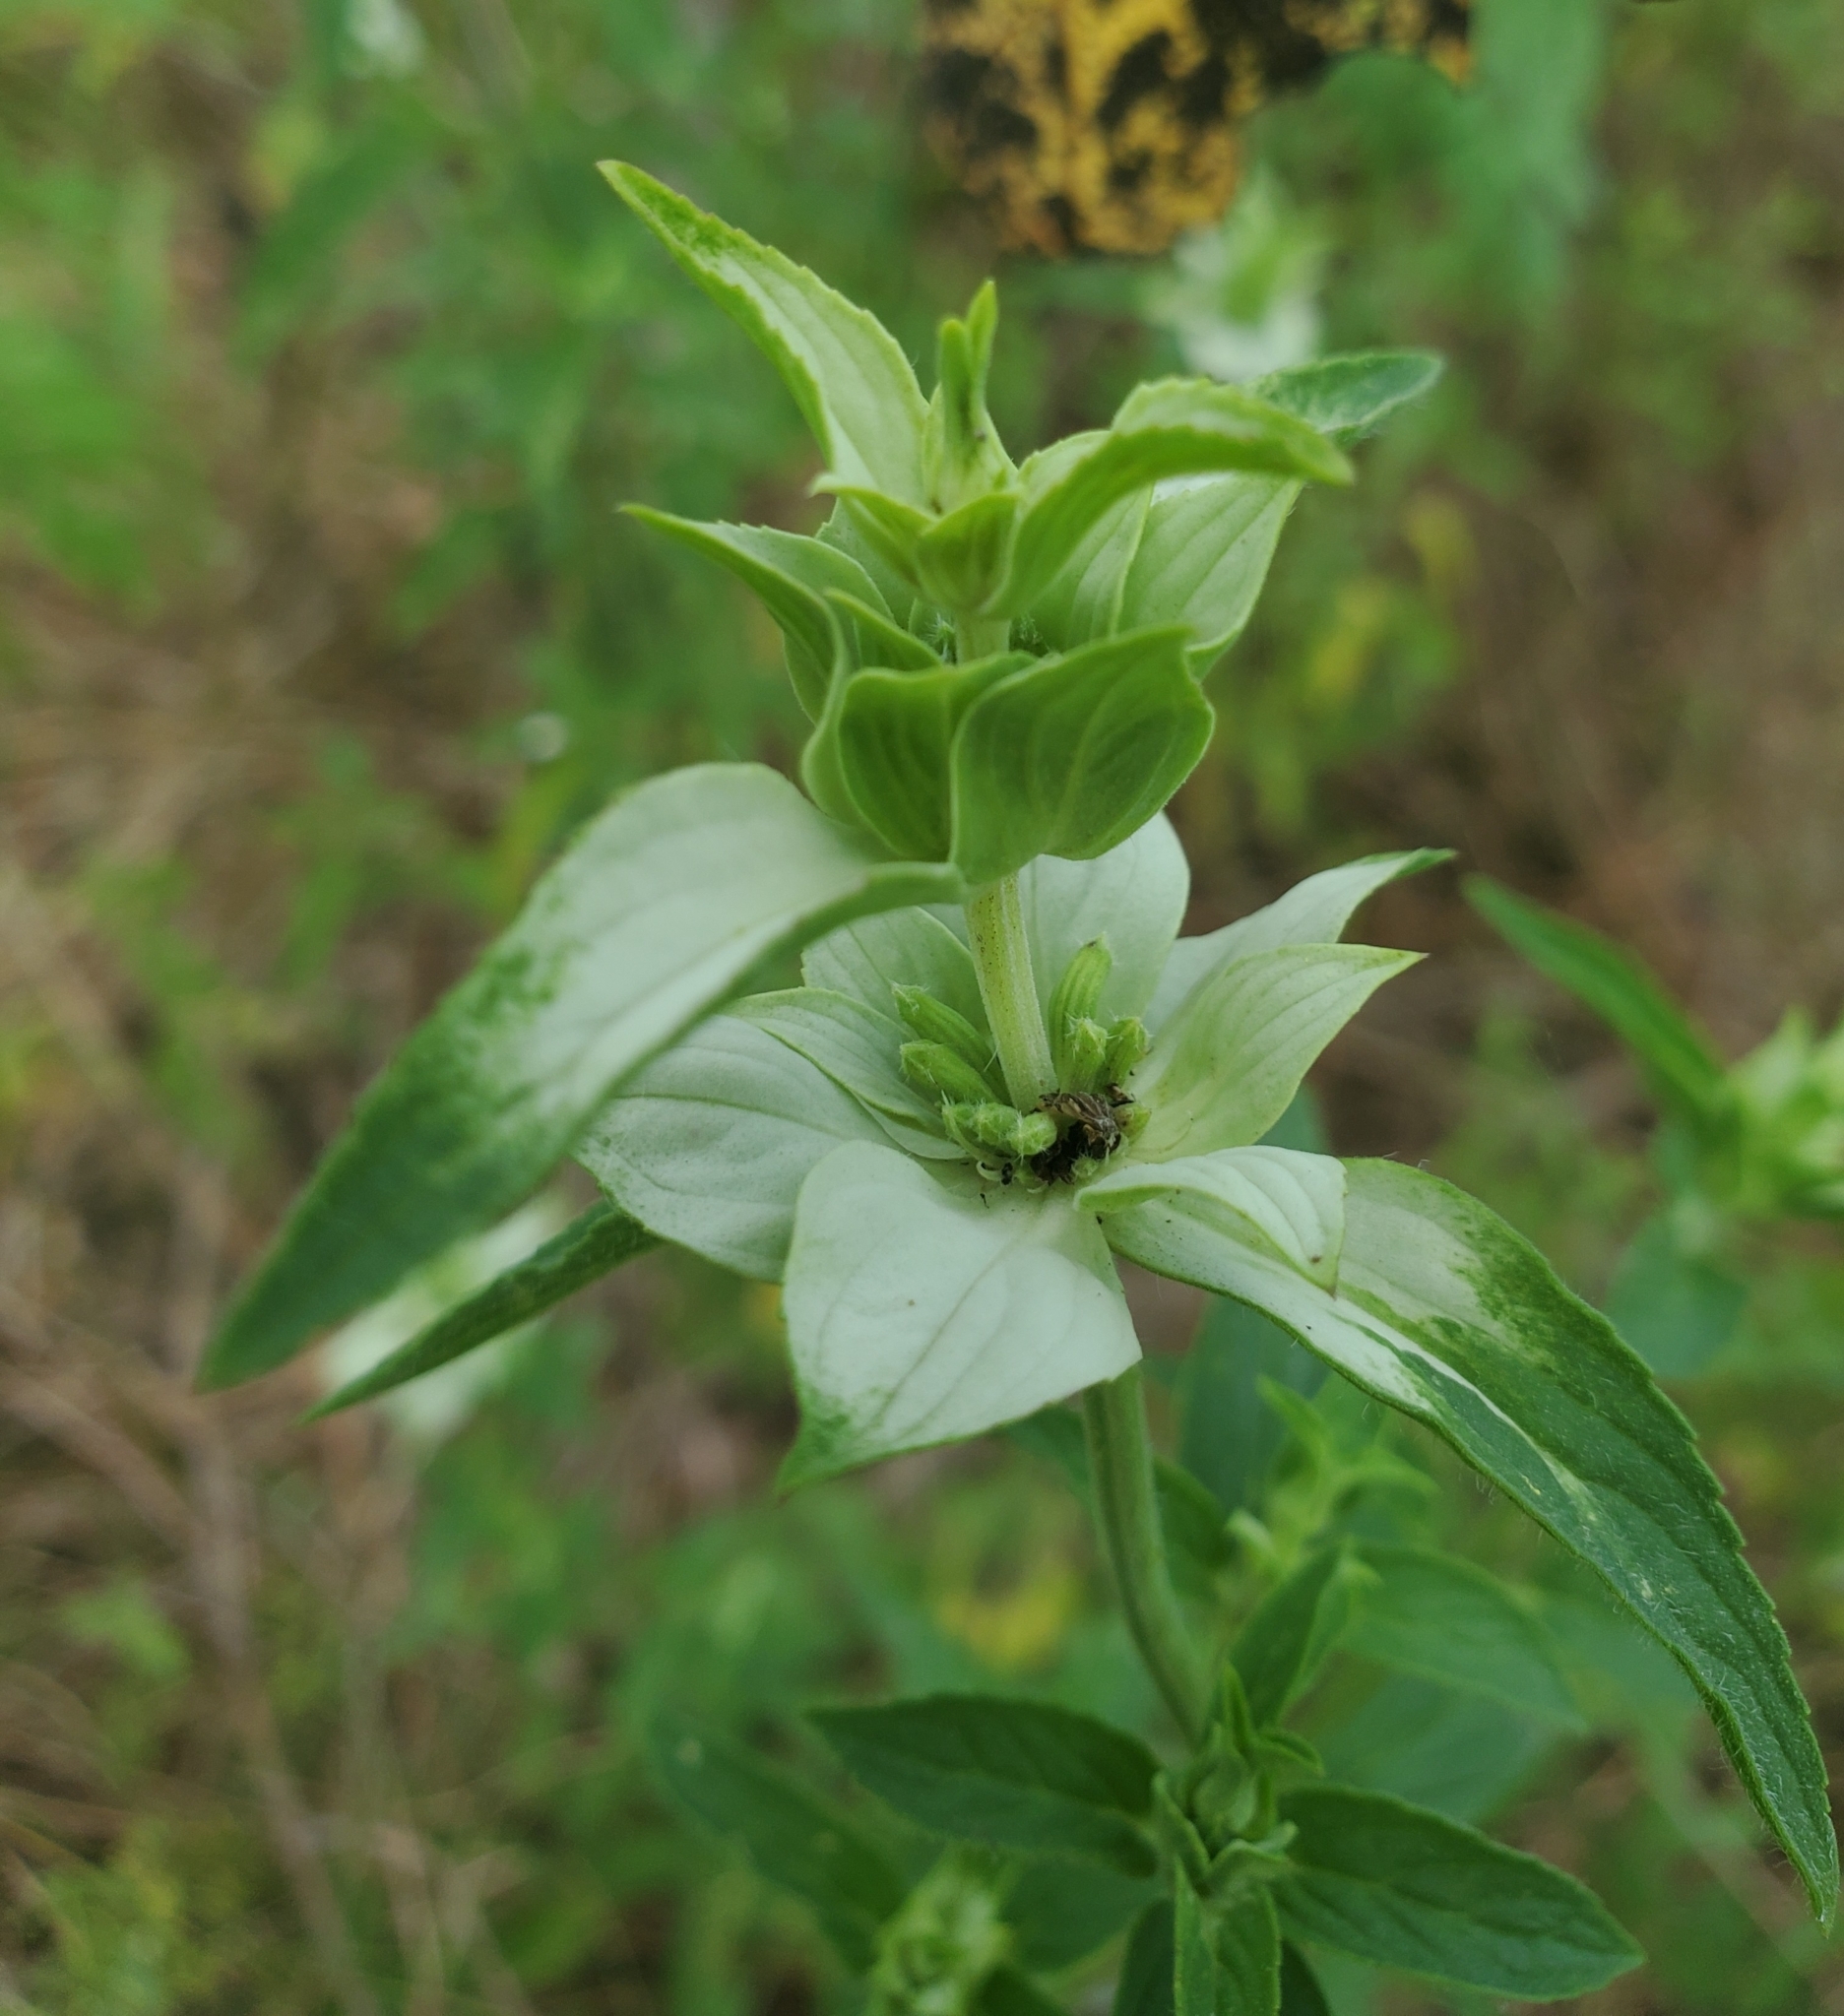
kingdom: Plantae
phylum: Tracheophyta
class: Magnoliopsida
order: Lamiales
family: Lamiaceae
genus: Monarda
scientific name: Monarda punctata
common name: Dotted monarda
